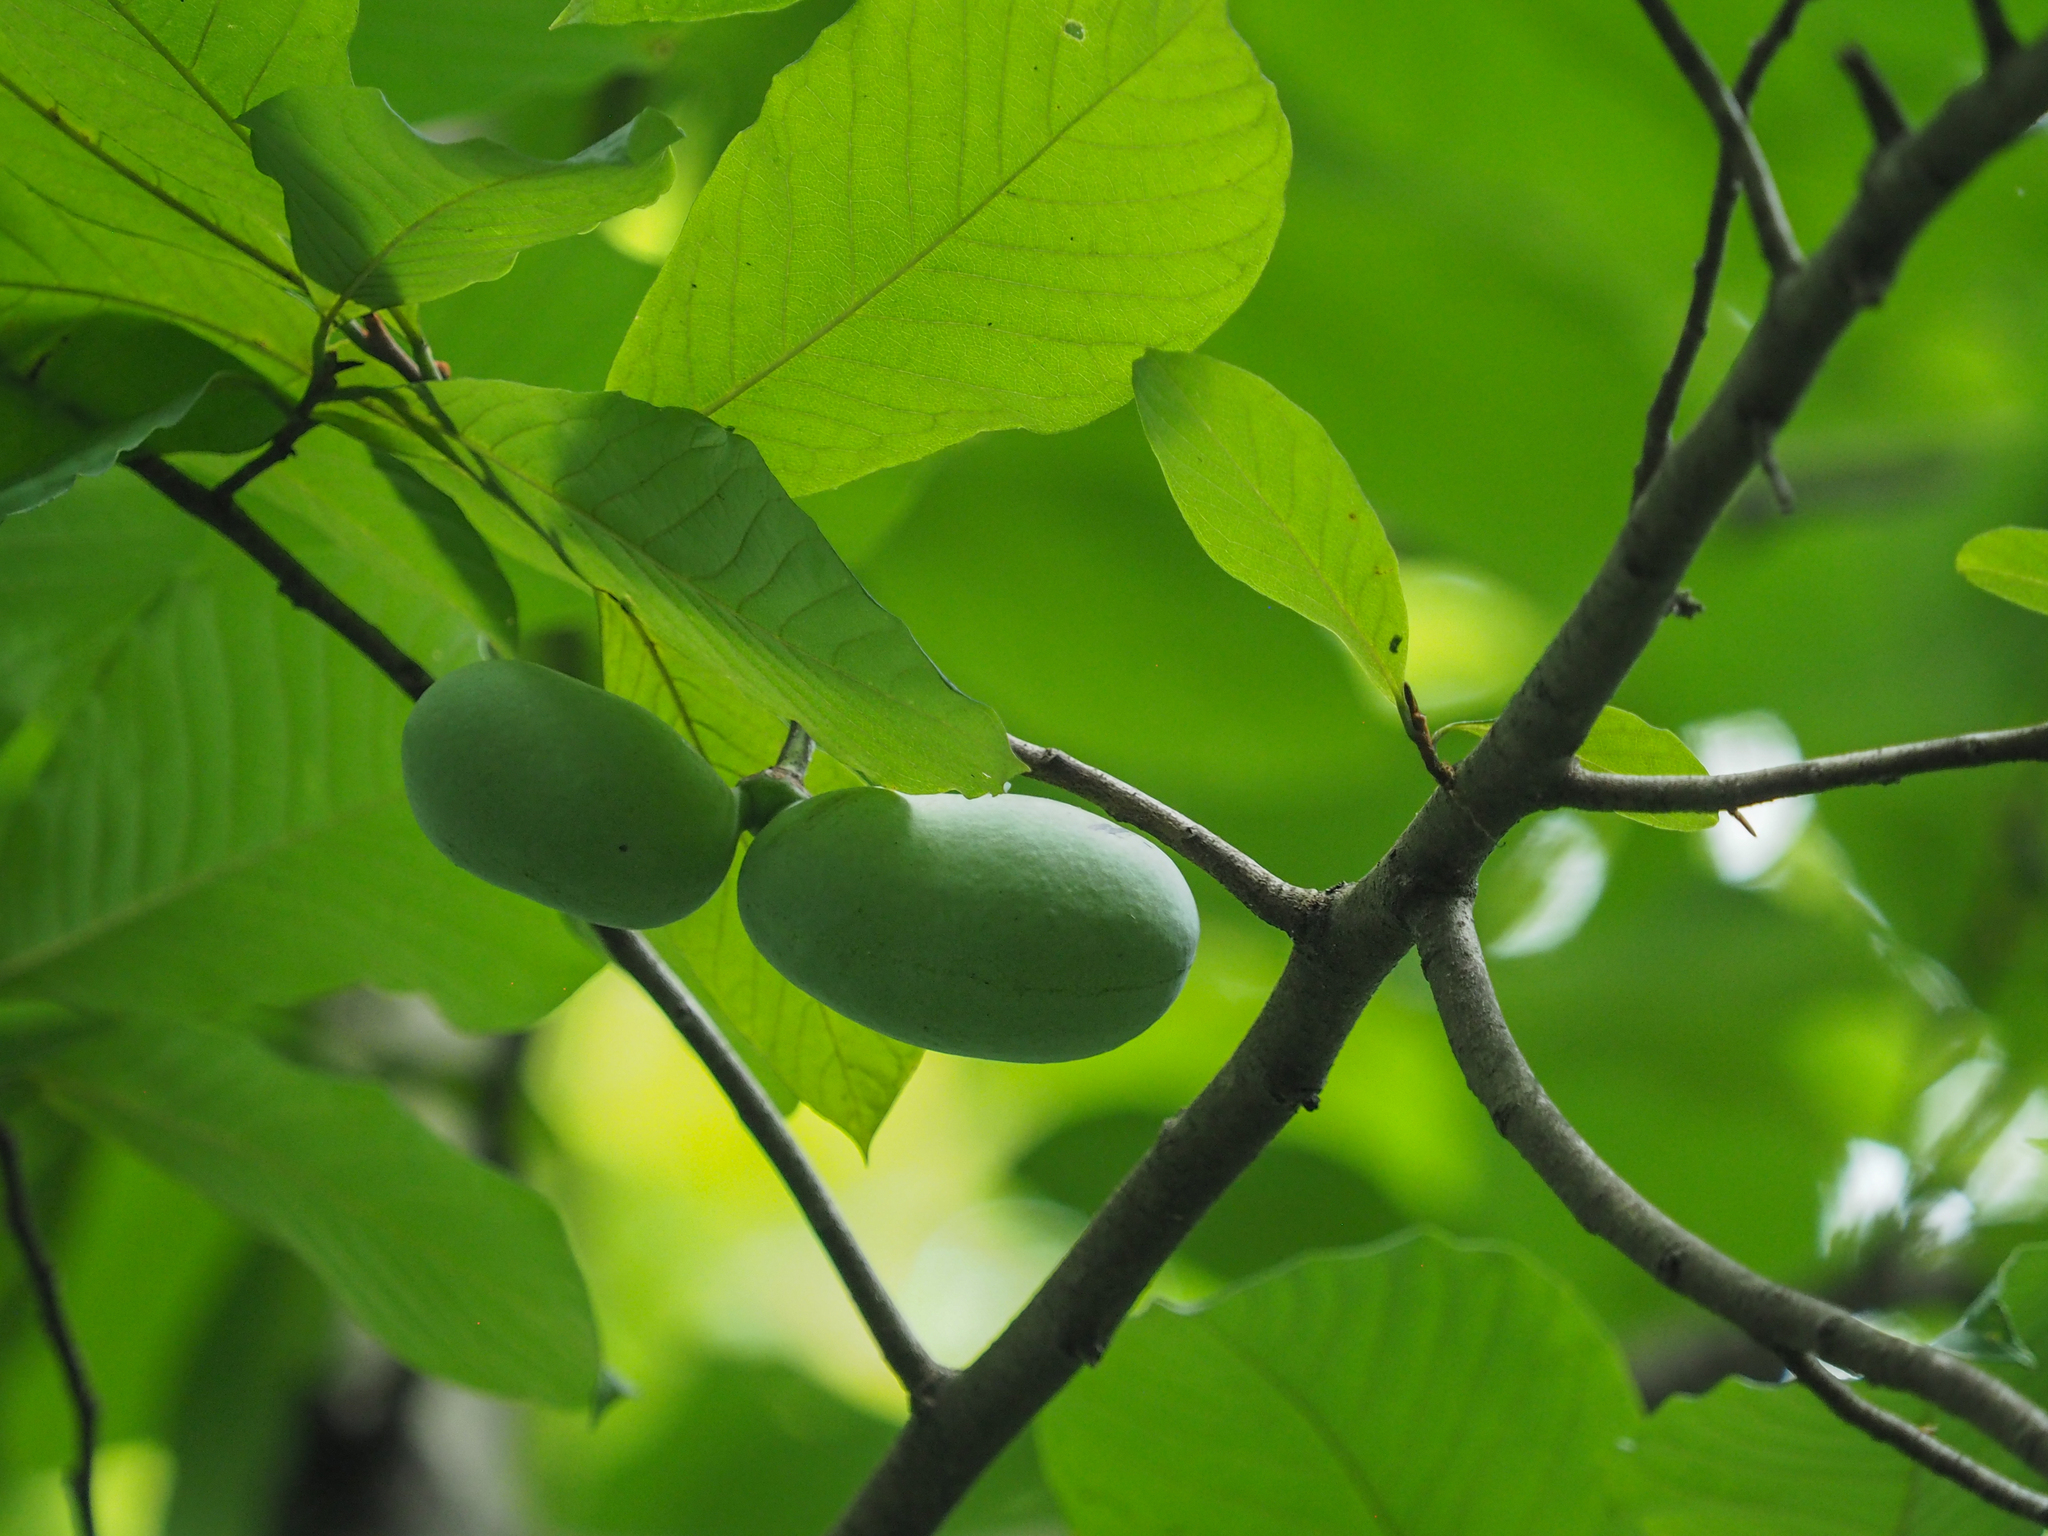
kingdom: Plantae
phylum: Tracheophyta
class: Magnoliopsida
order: Magnoliales
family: Annonaceae
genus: Asimina
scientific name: Asimina triloba
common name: Dog-banana
